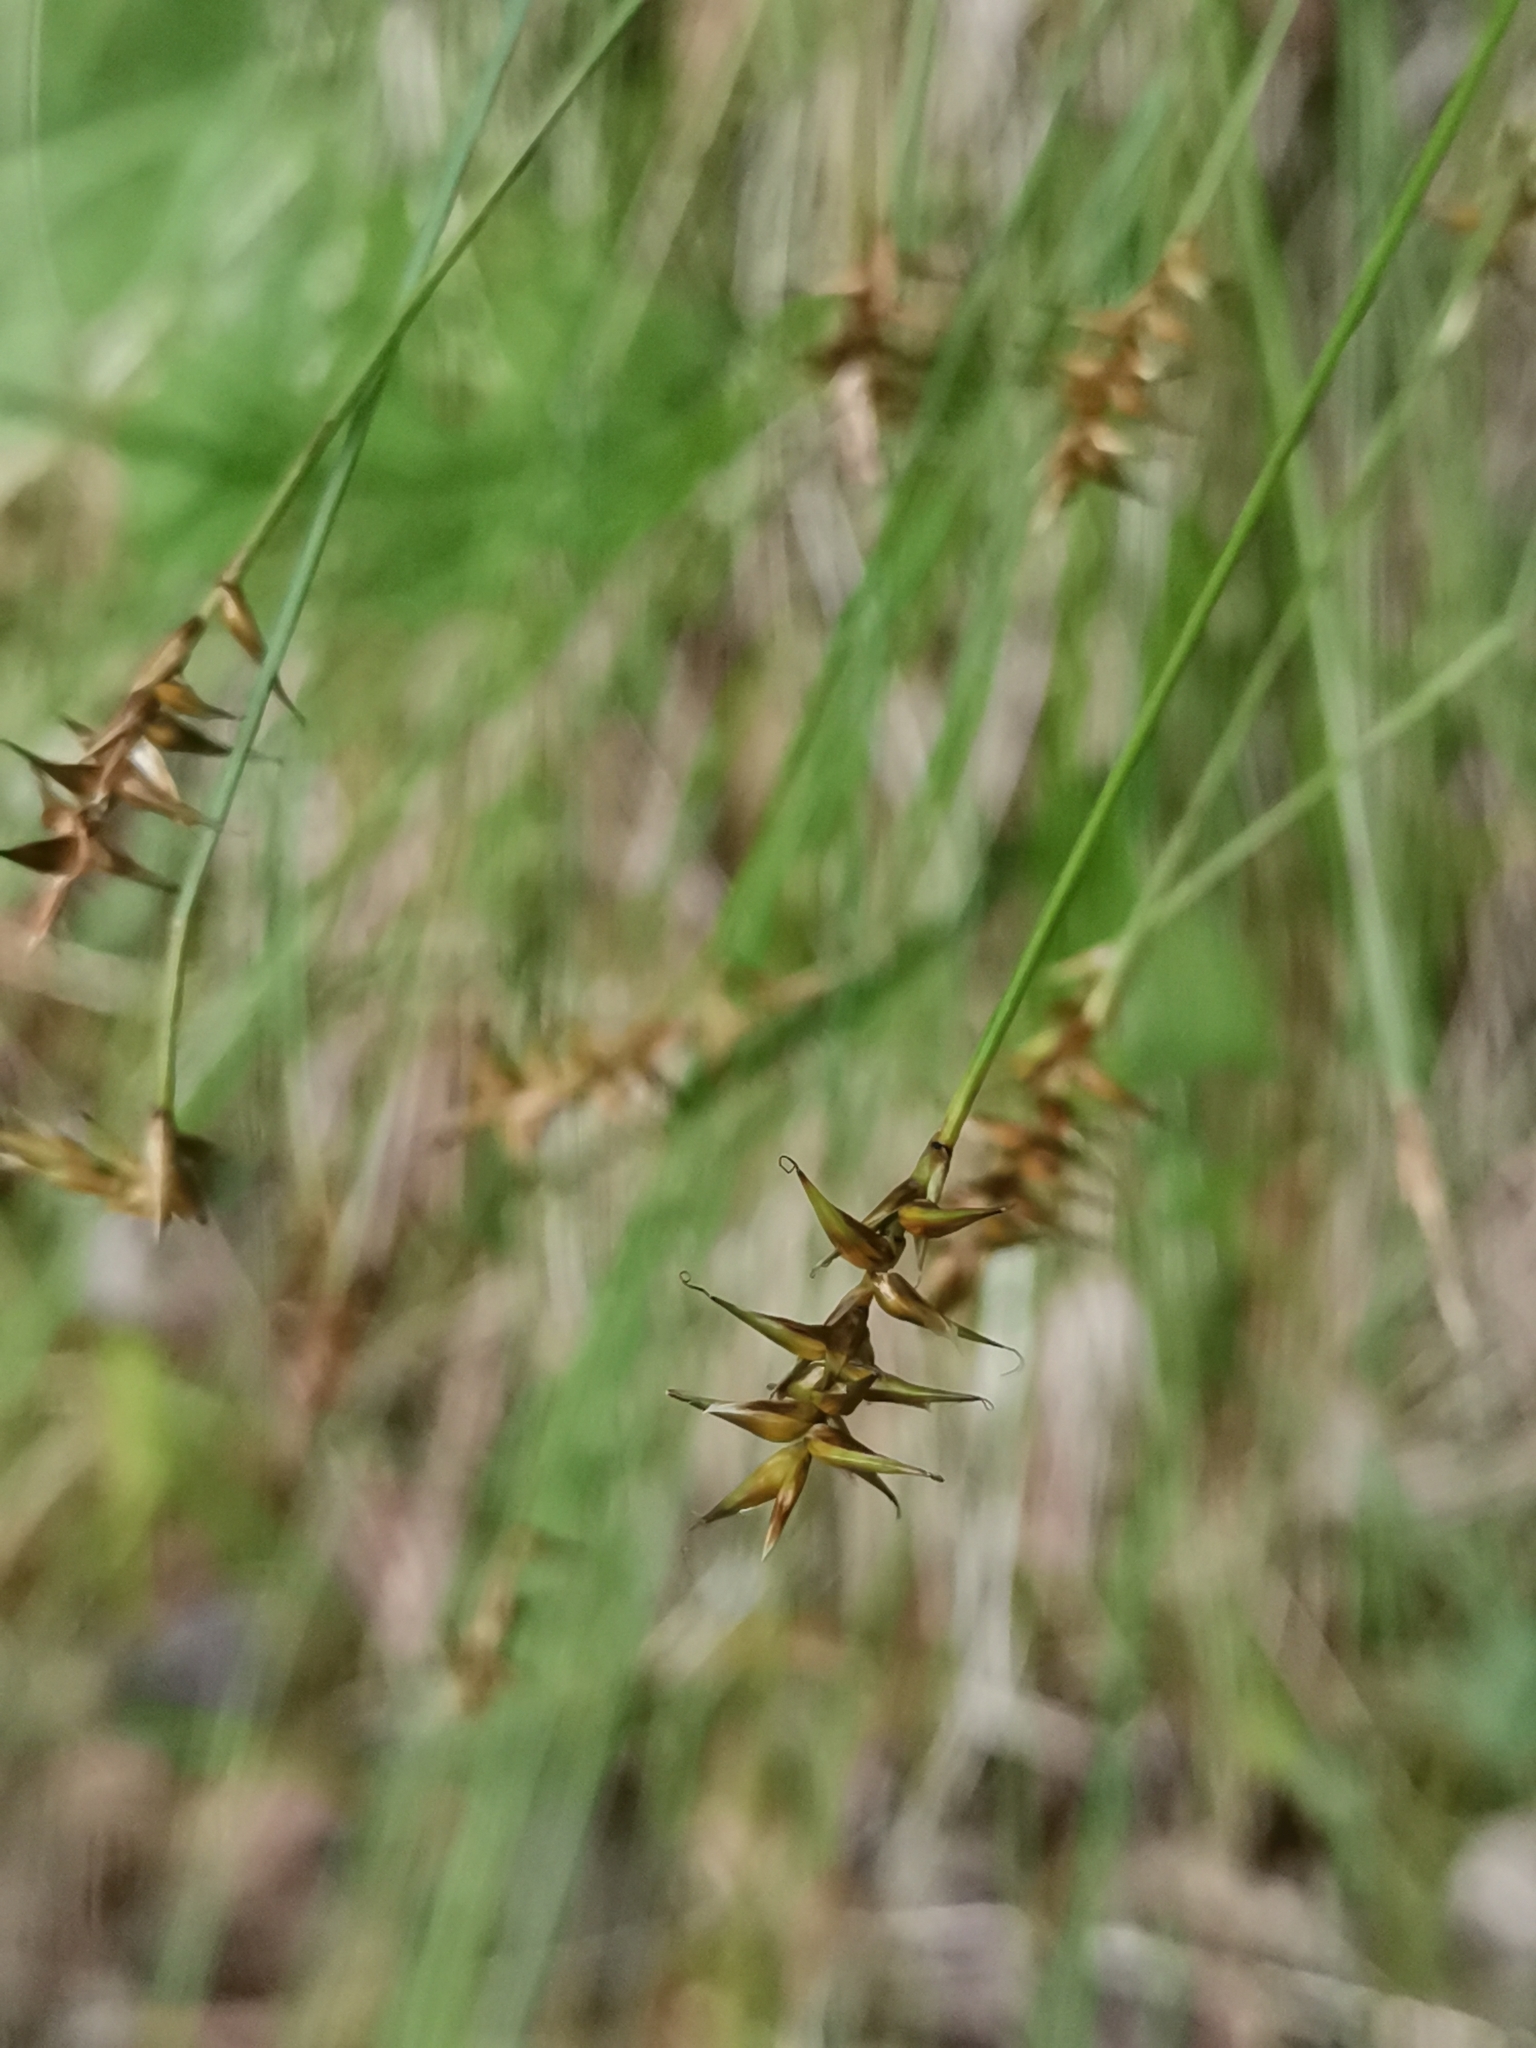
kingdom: Plantae
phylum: Tracheophyta
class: Liliopsida
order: Poales
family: Cyperaceae
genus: Carex
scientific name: Carex davalliana
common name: Davall's sedge
